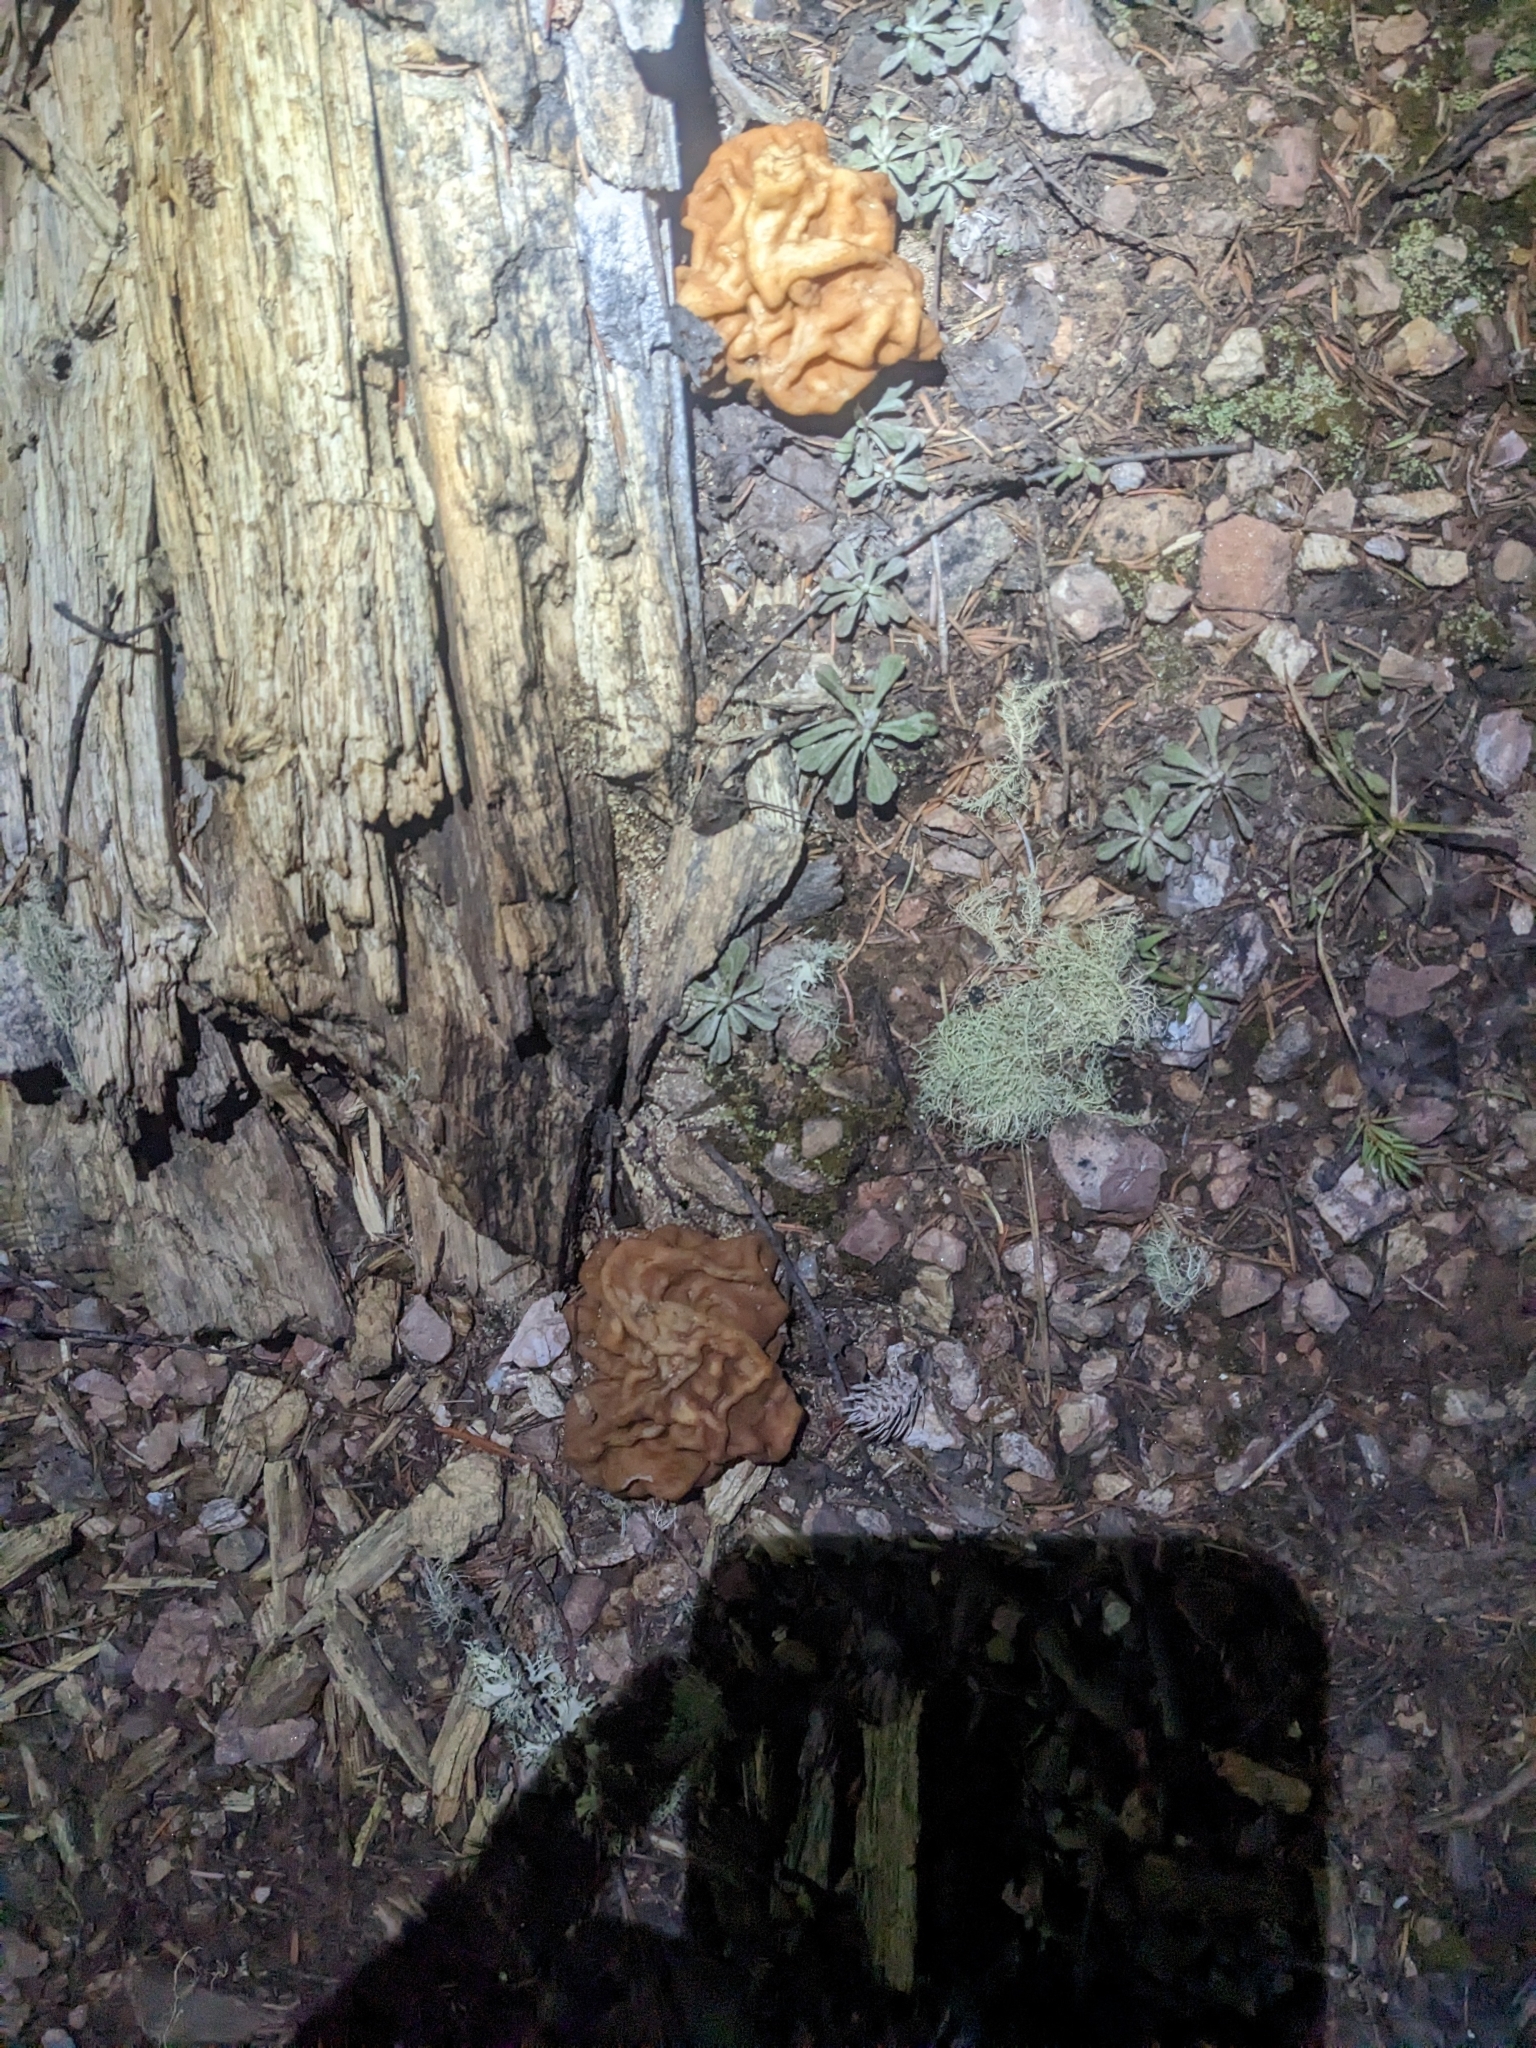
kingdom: Fungi
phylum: Ascomycota
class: Pezizomycetes
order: Pezizales
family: Discinaceae
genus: Discina
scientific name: Discina montana
